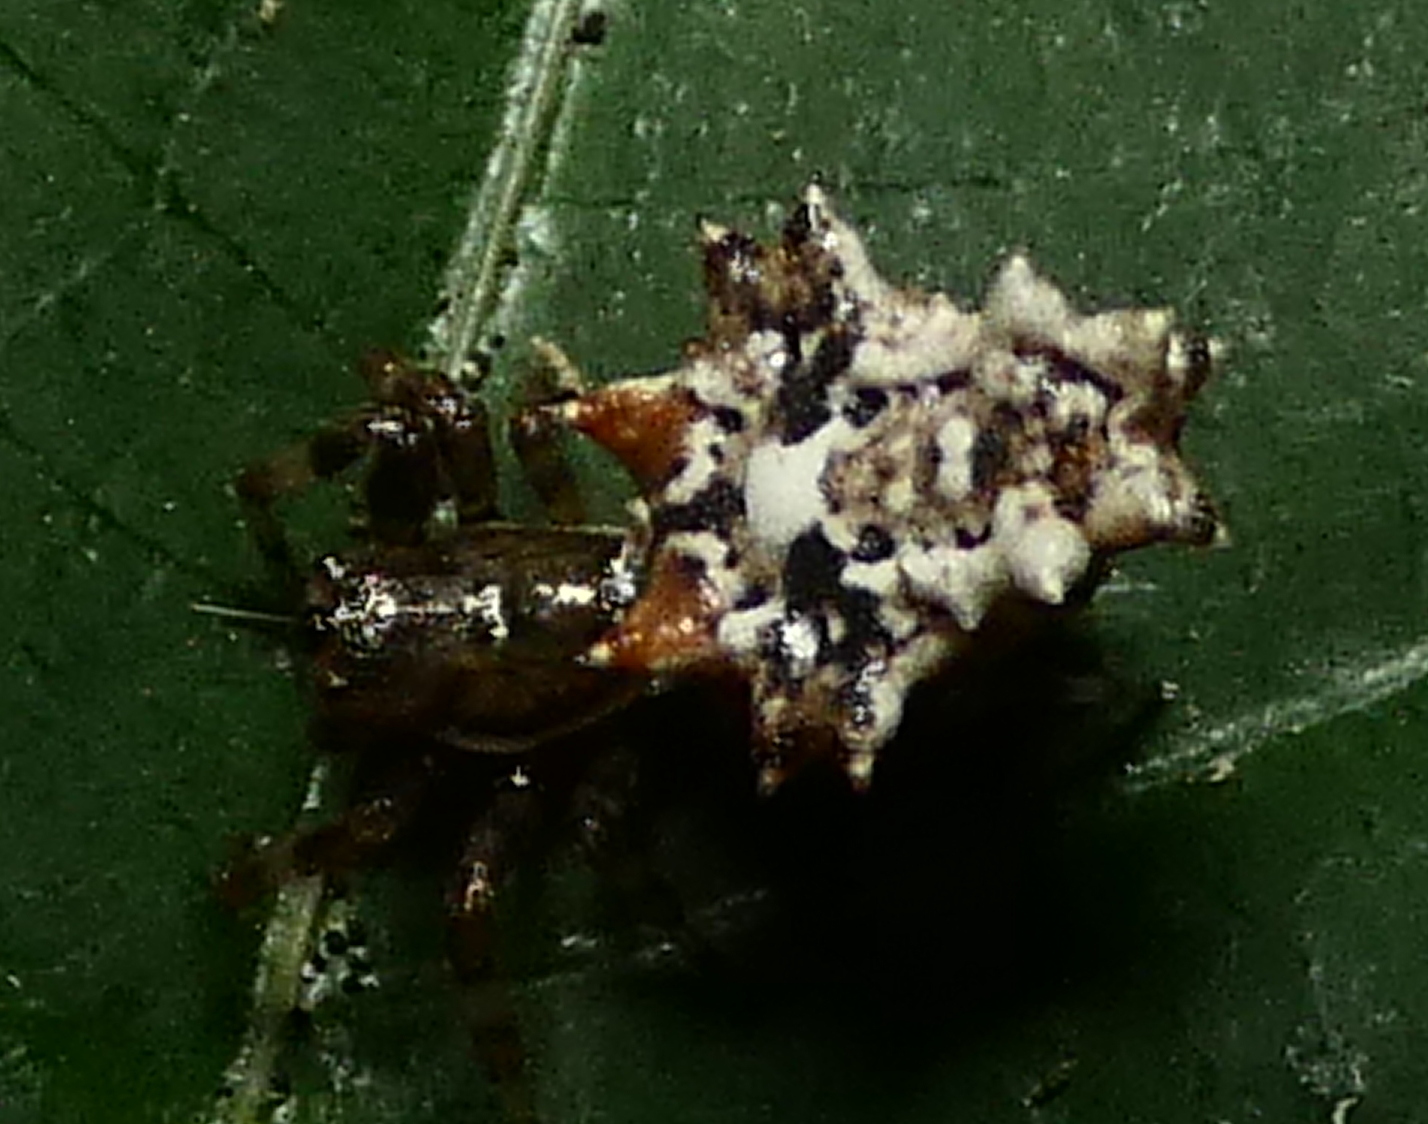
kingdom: Animalia
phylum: Arthropoda
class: Arachnida
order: Araneae
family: Araneidae
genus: Micrathena
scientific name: Micrathena horrida
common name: Orb weavers
